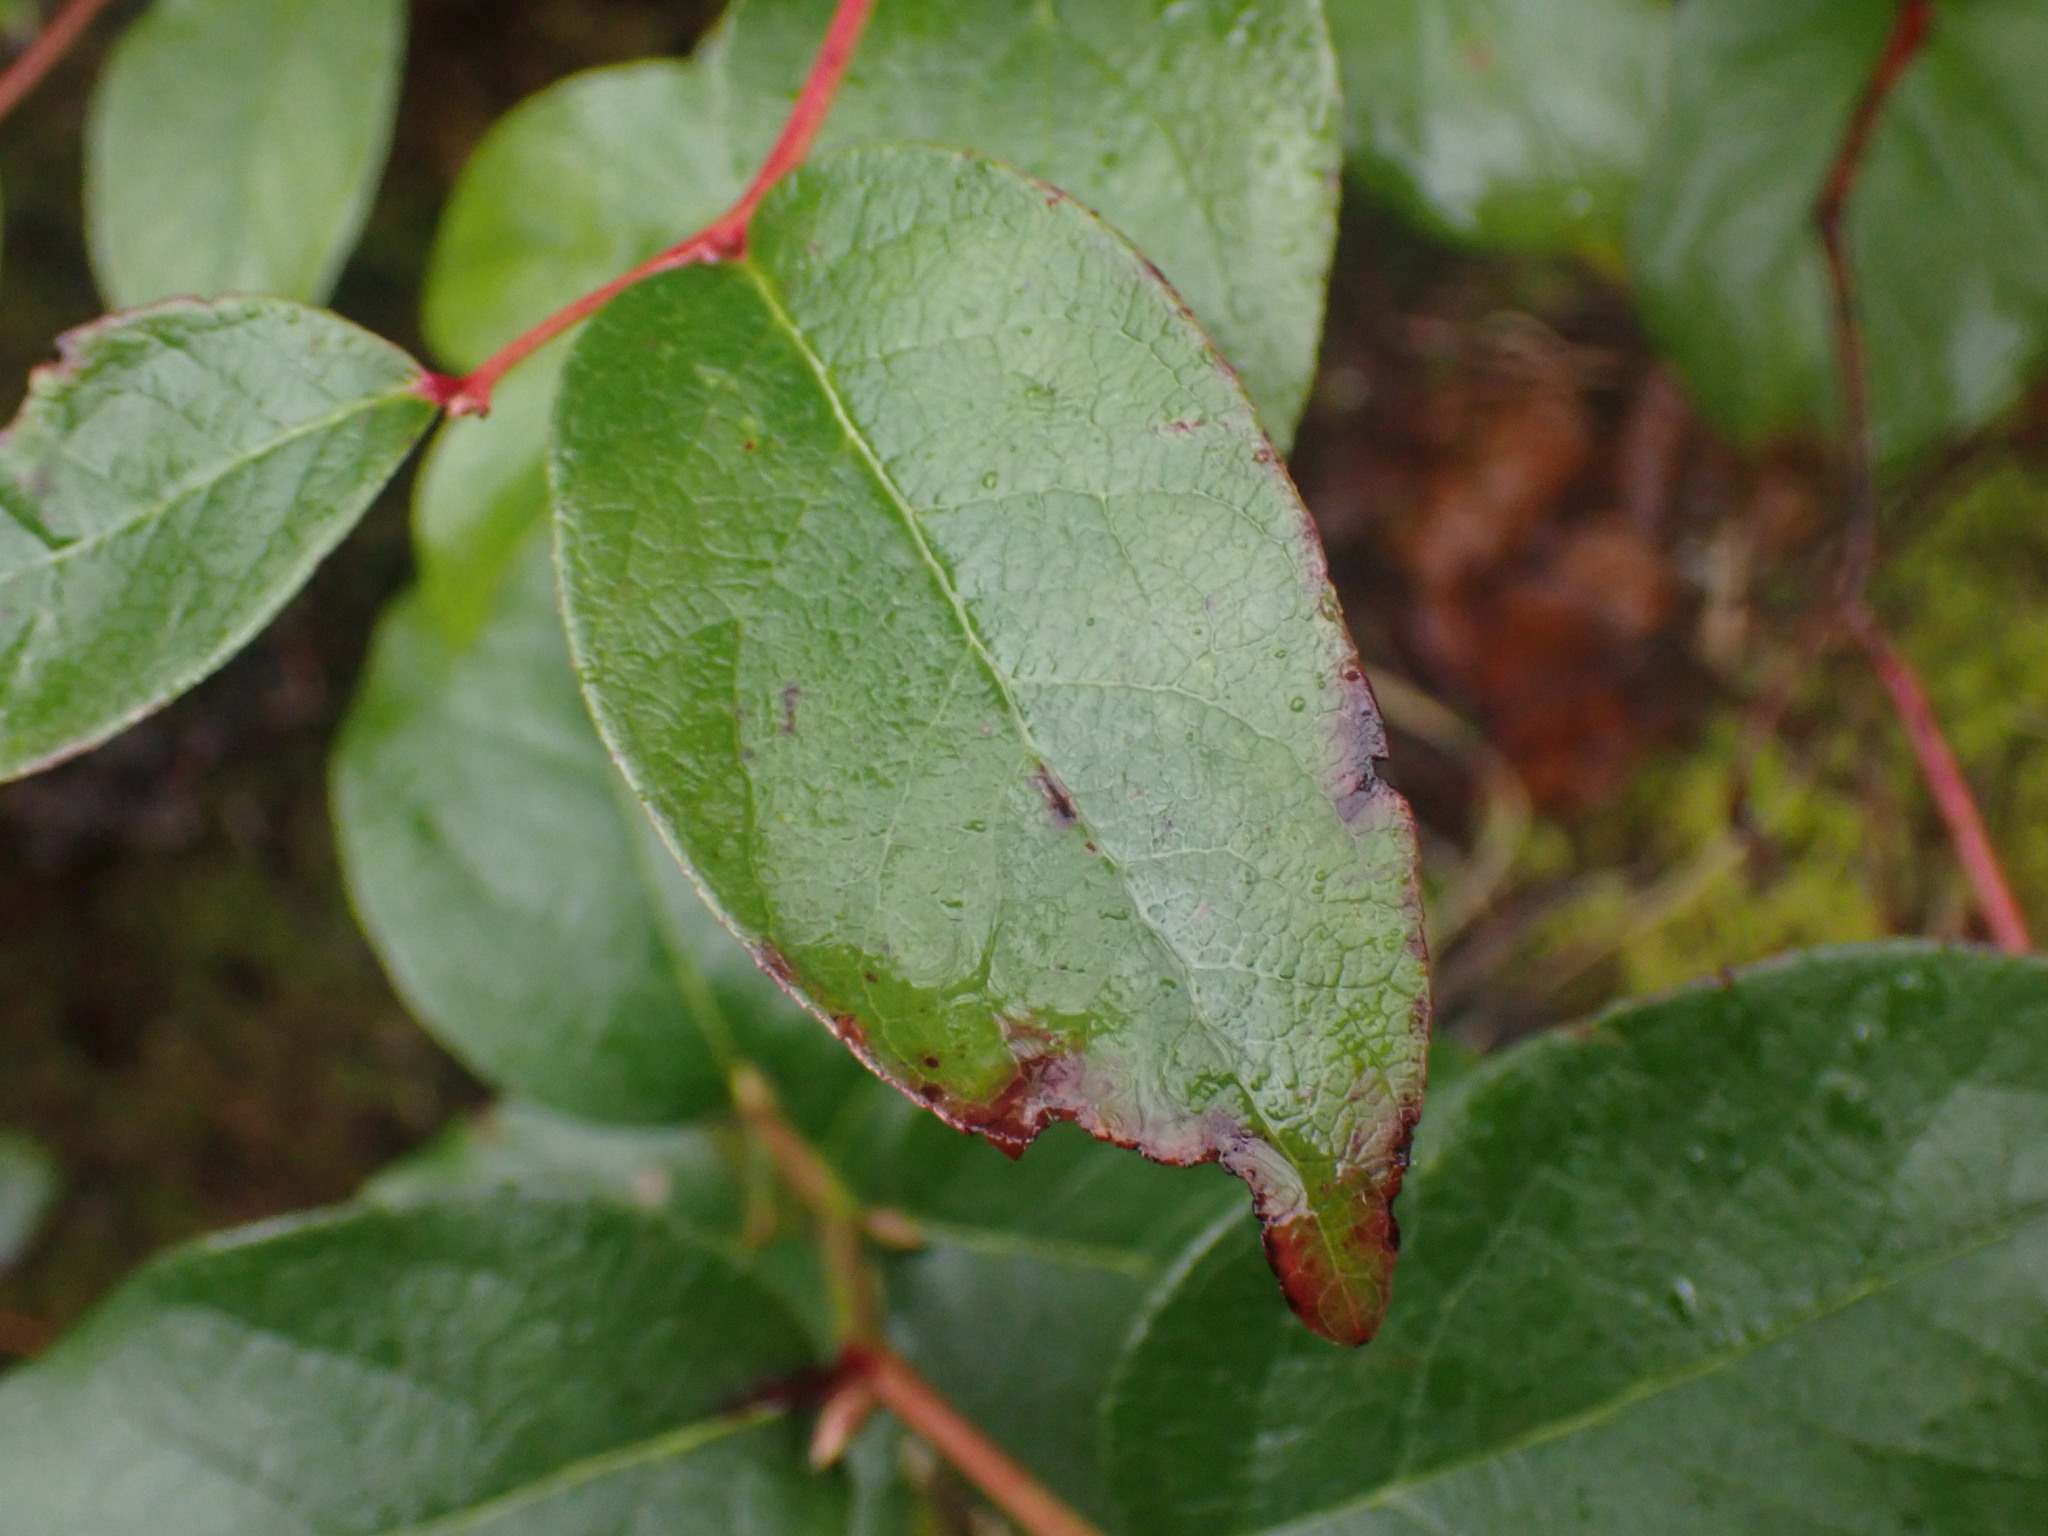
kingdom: Plantae
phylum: Tracheophyta
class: Magnoliopsida
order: Ericales
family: Ericaceae
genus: Gaultheria
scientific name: Gaultheria shallon
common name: Shallon
